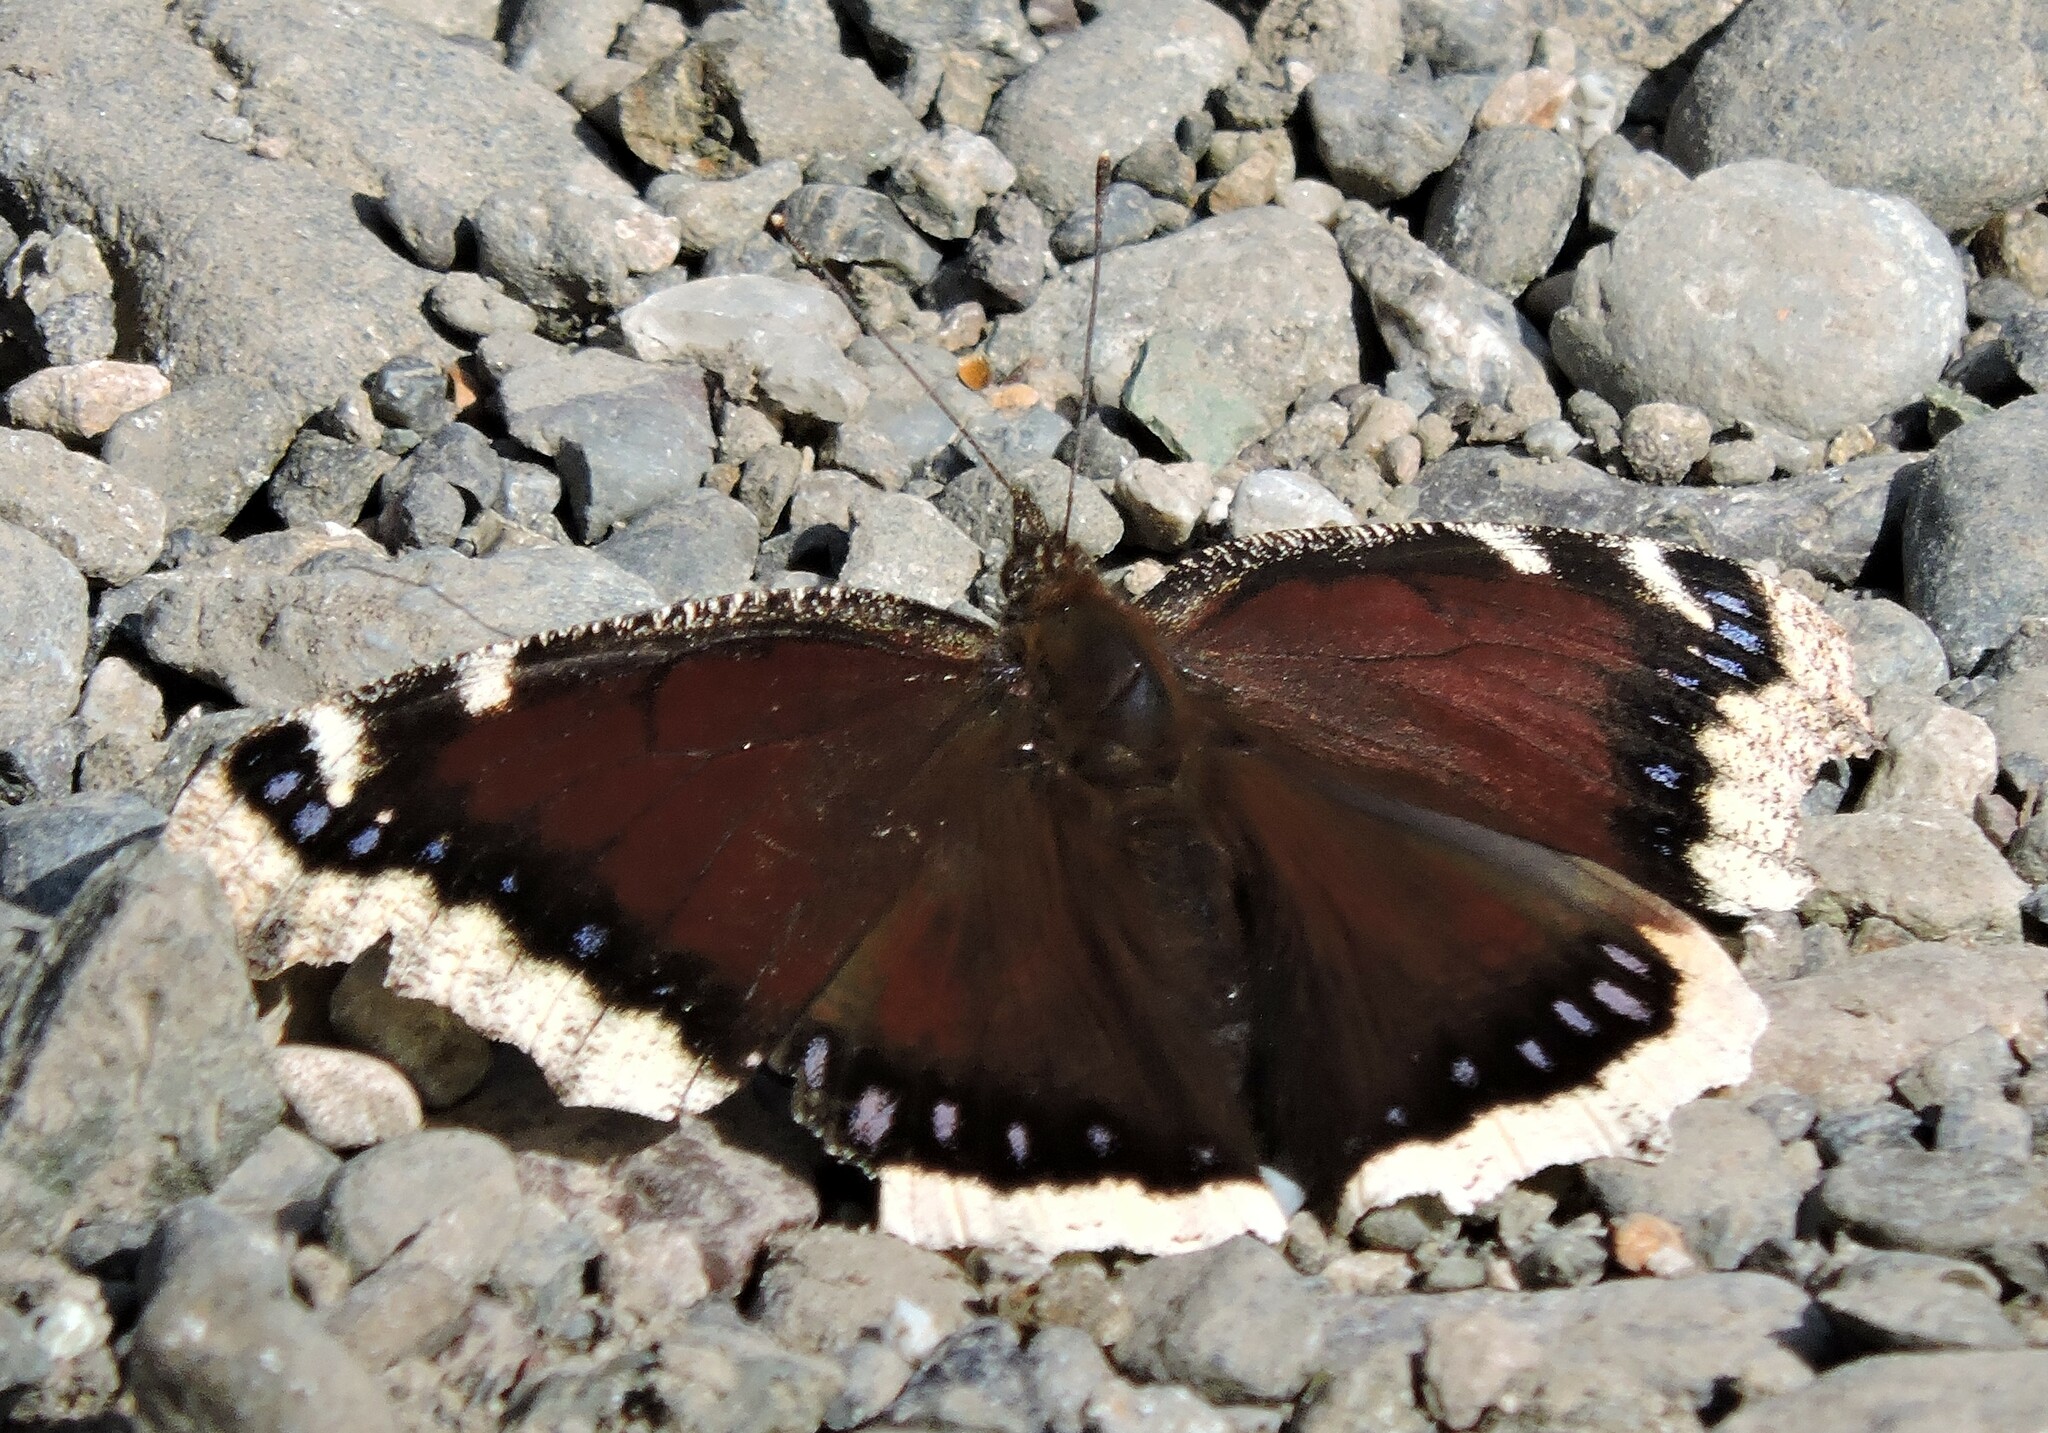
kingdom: Animalia
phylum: Arthropoda
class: Insecta
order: Lepidoptera
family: Nymphalidae
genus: Nymphalis
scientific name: Nymphalis antiopa
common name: Camberwell beauty
